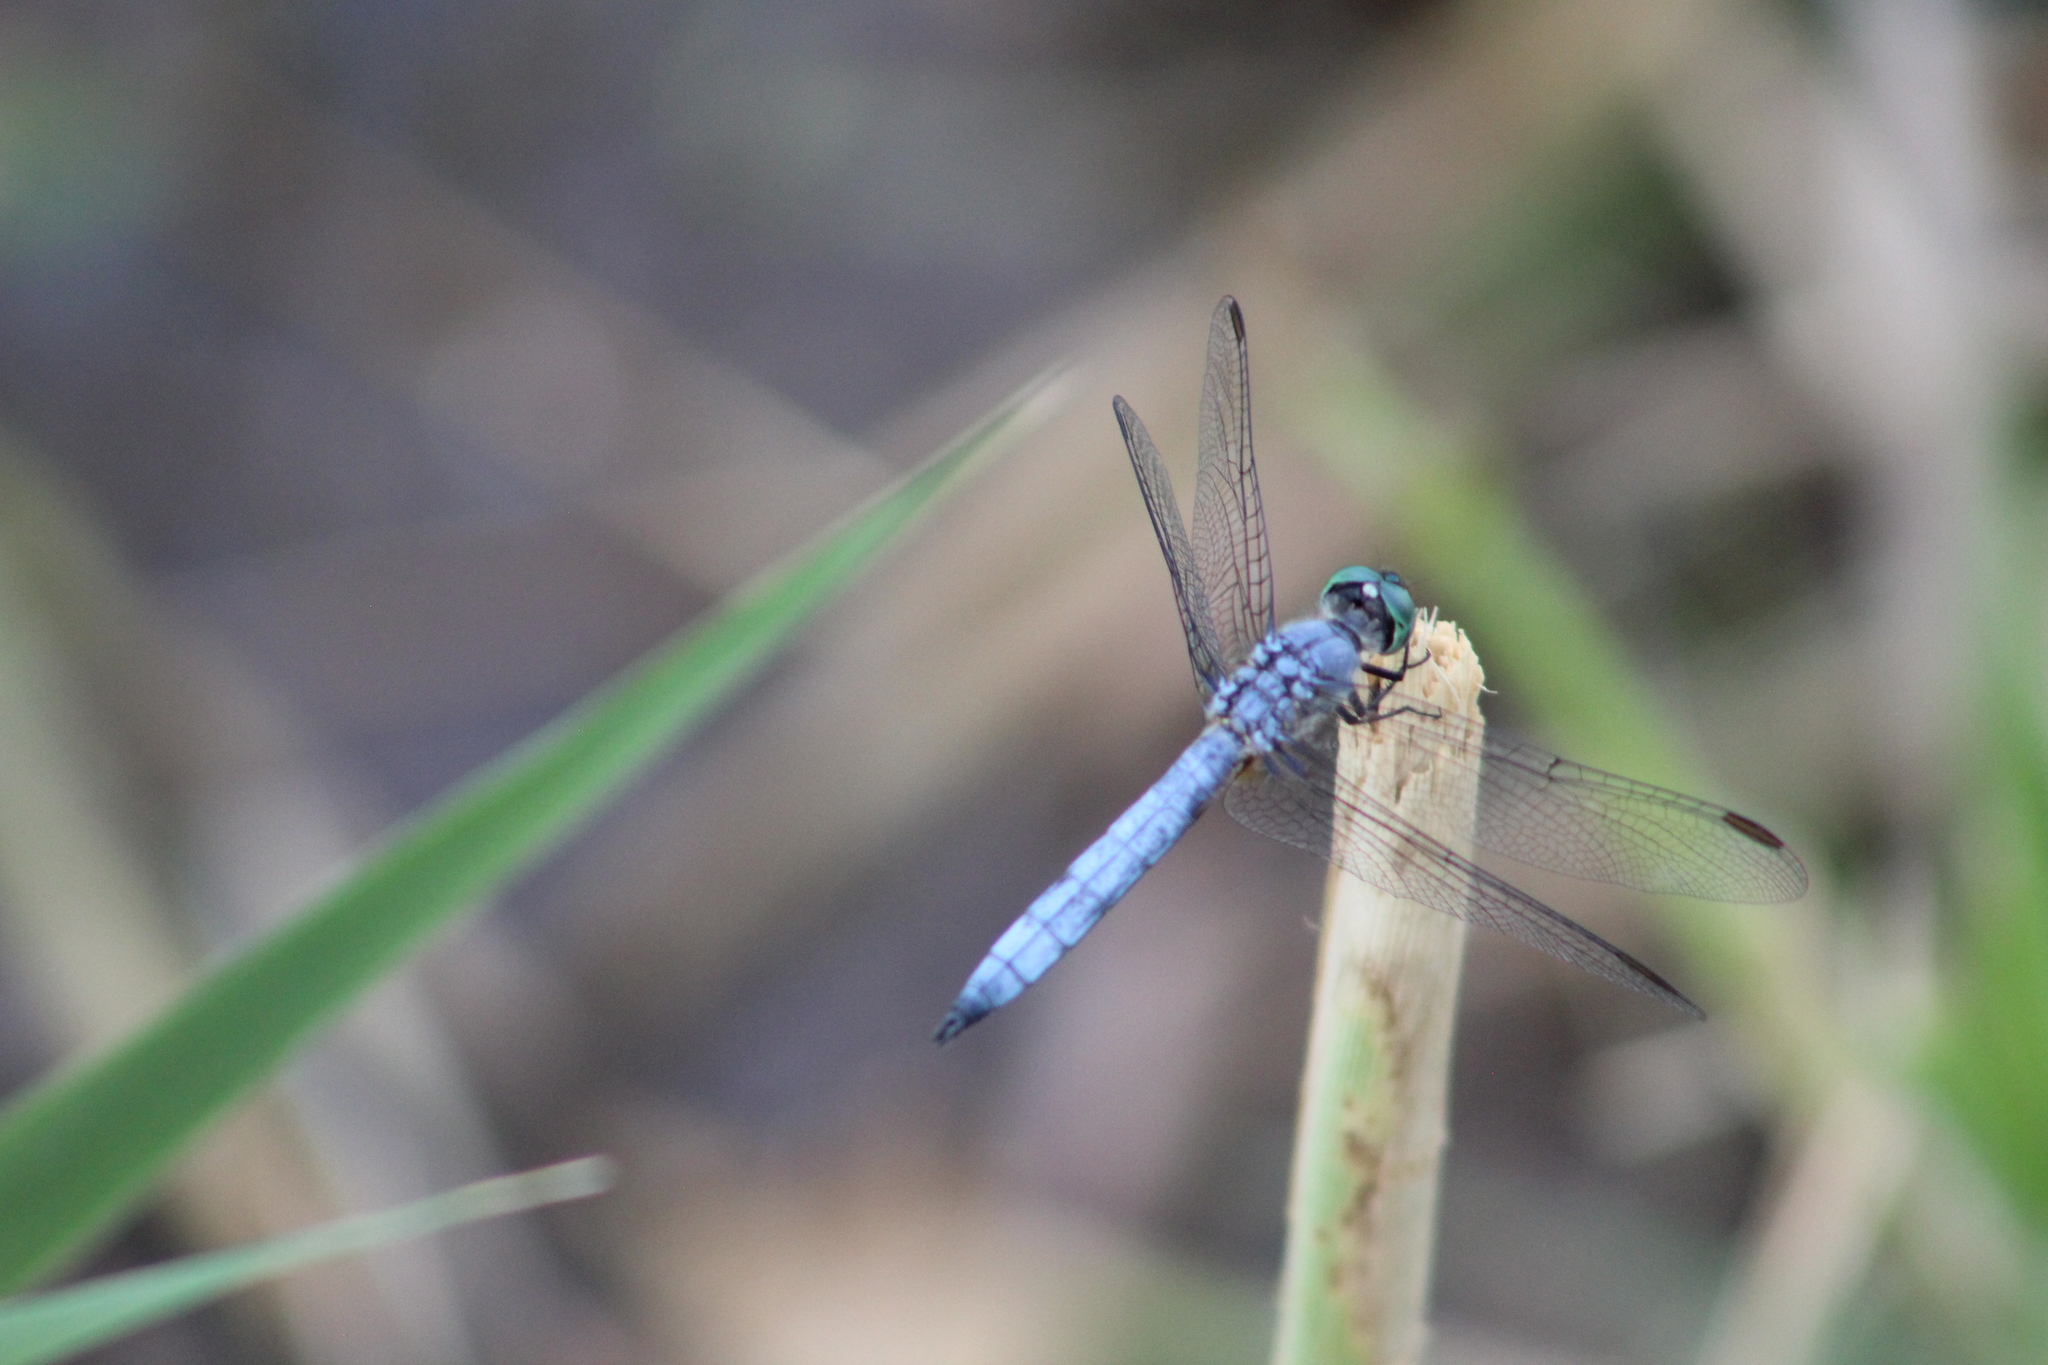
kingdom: Animalia
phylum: Arthropoda
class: Insecta
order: Odonata
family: Libellulidae
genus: Pachydiplax
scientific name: Pachydiplax longipennis
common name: Blue dasher
